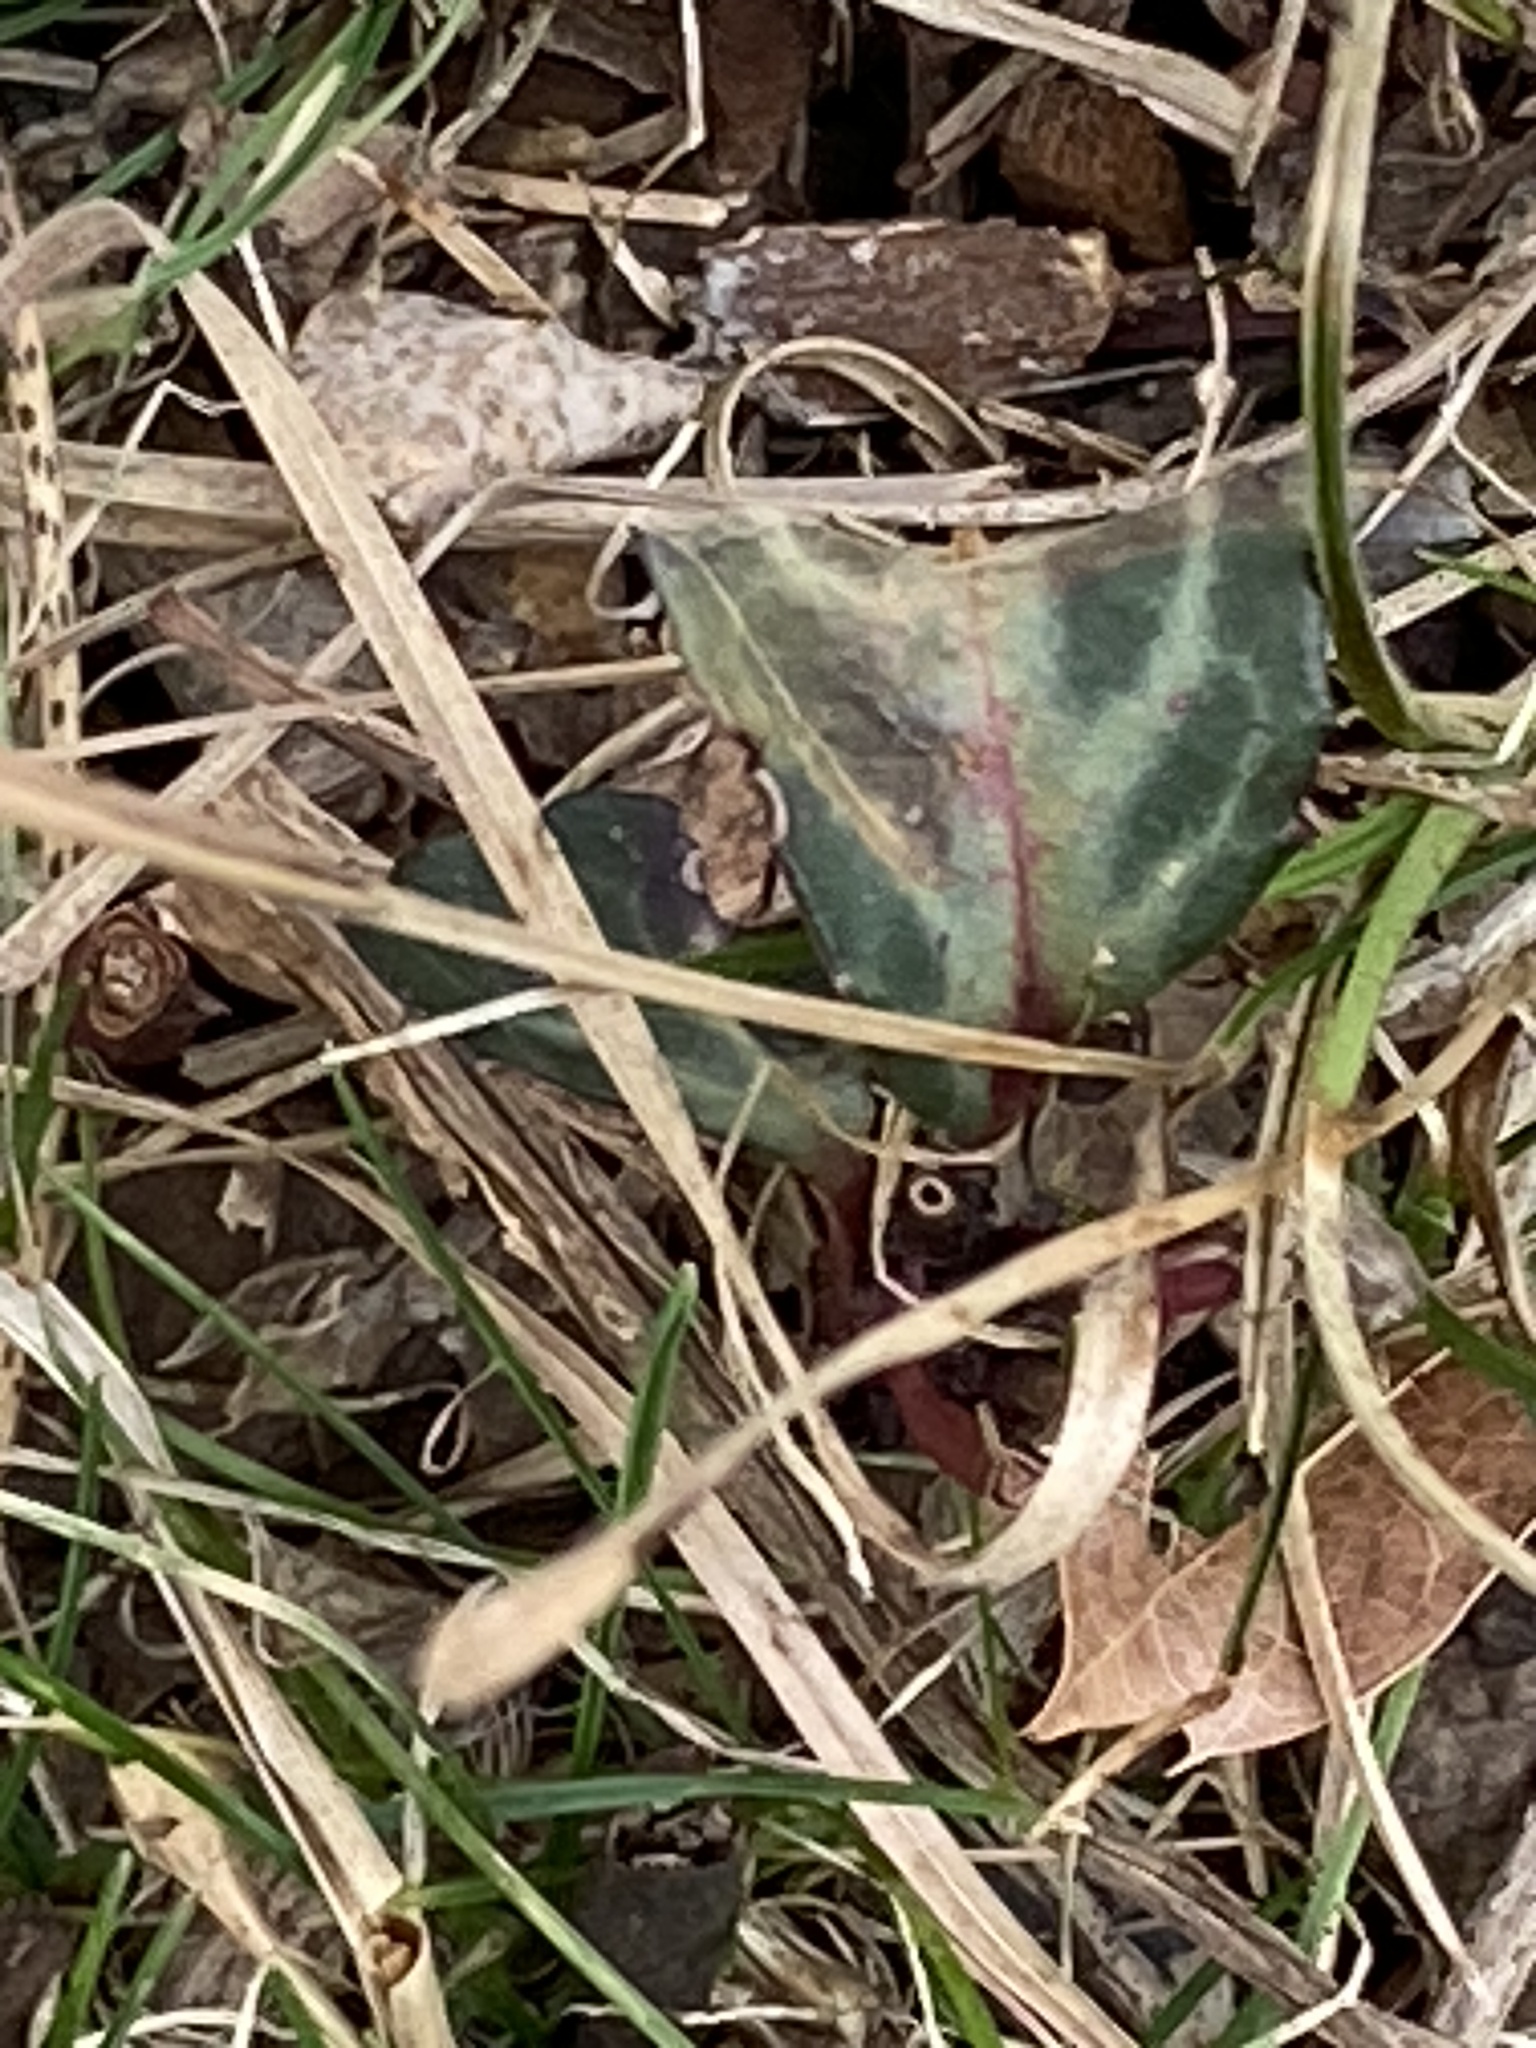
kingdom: Plantae
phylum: Tracheophyta
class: Magnoliopsida
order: Ericales
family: Ericaceae
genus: Chimaphila
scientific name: Chimaphila maculata
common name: Spotted pipsissewa
